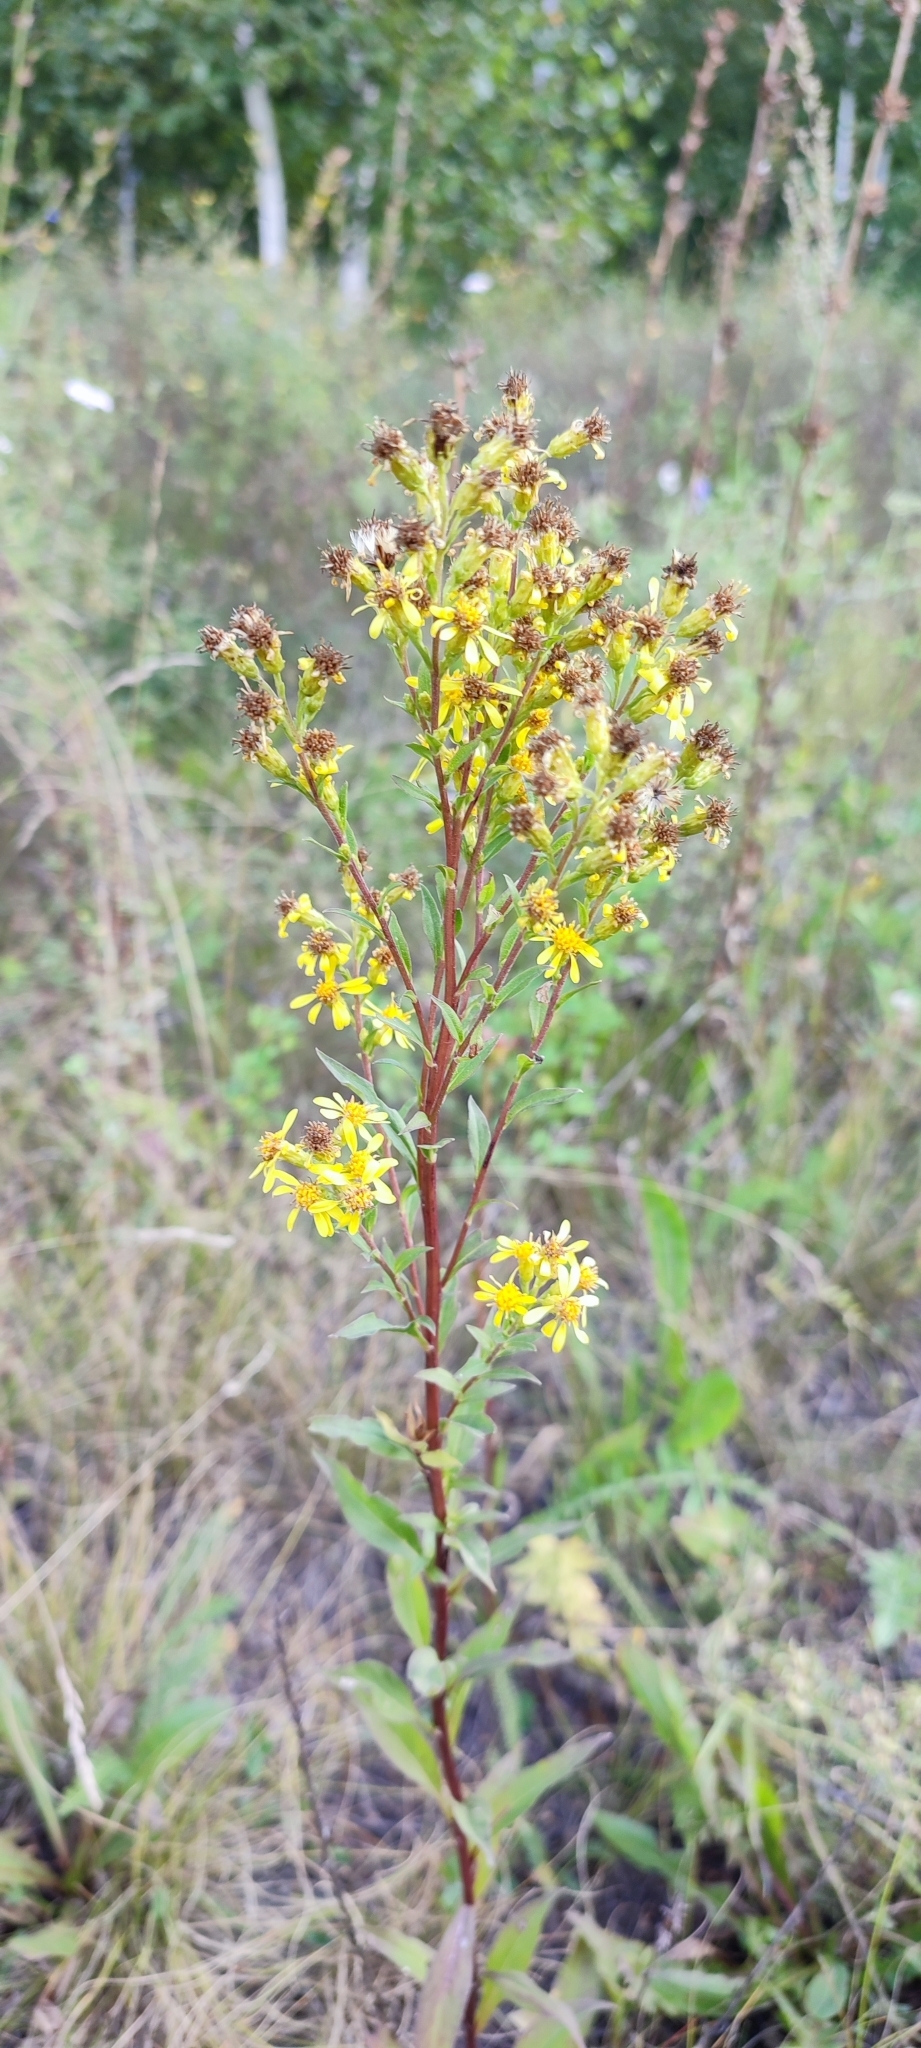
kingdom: Plantae
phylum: Tracheophyta
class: Magnoliopsida
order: Asterales
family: Asteraceae
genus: Solidago
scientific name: Solidago virgaurea
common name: Goldenrod
